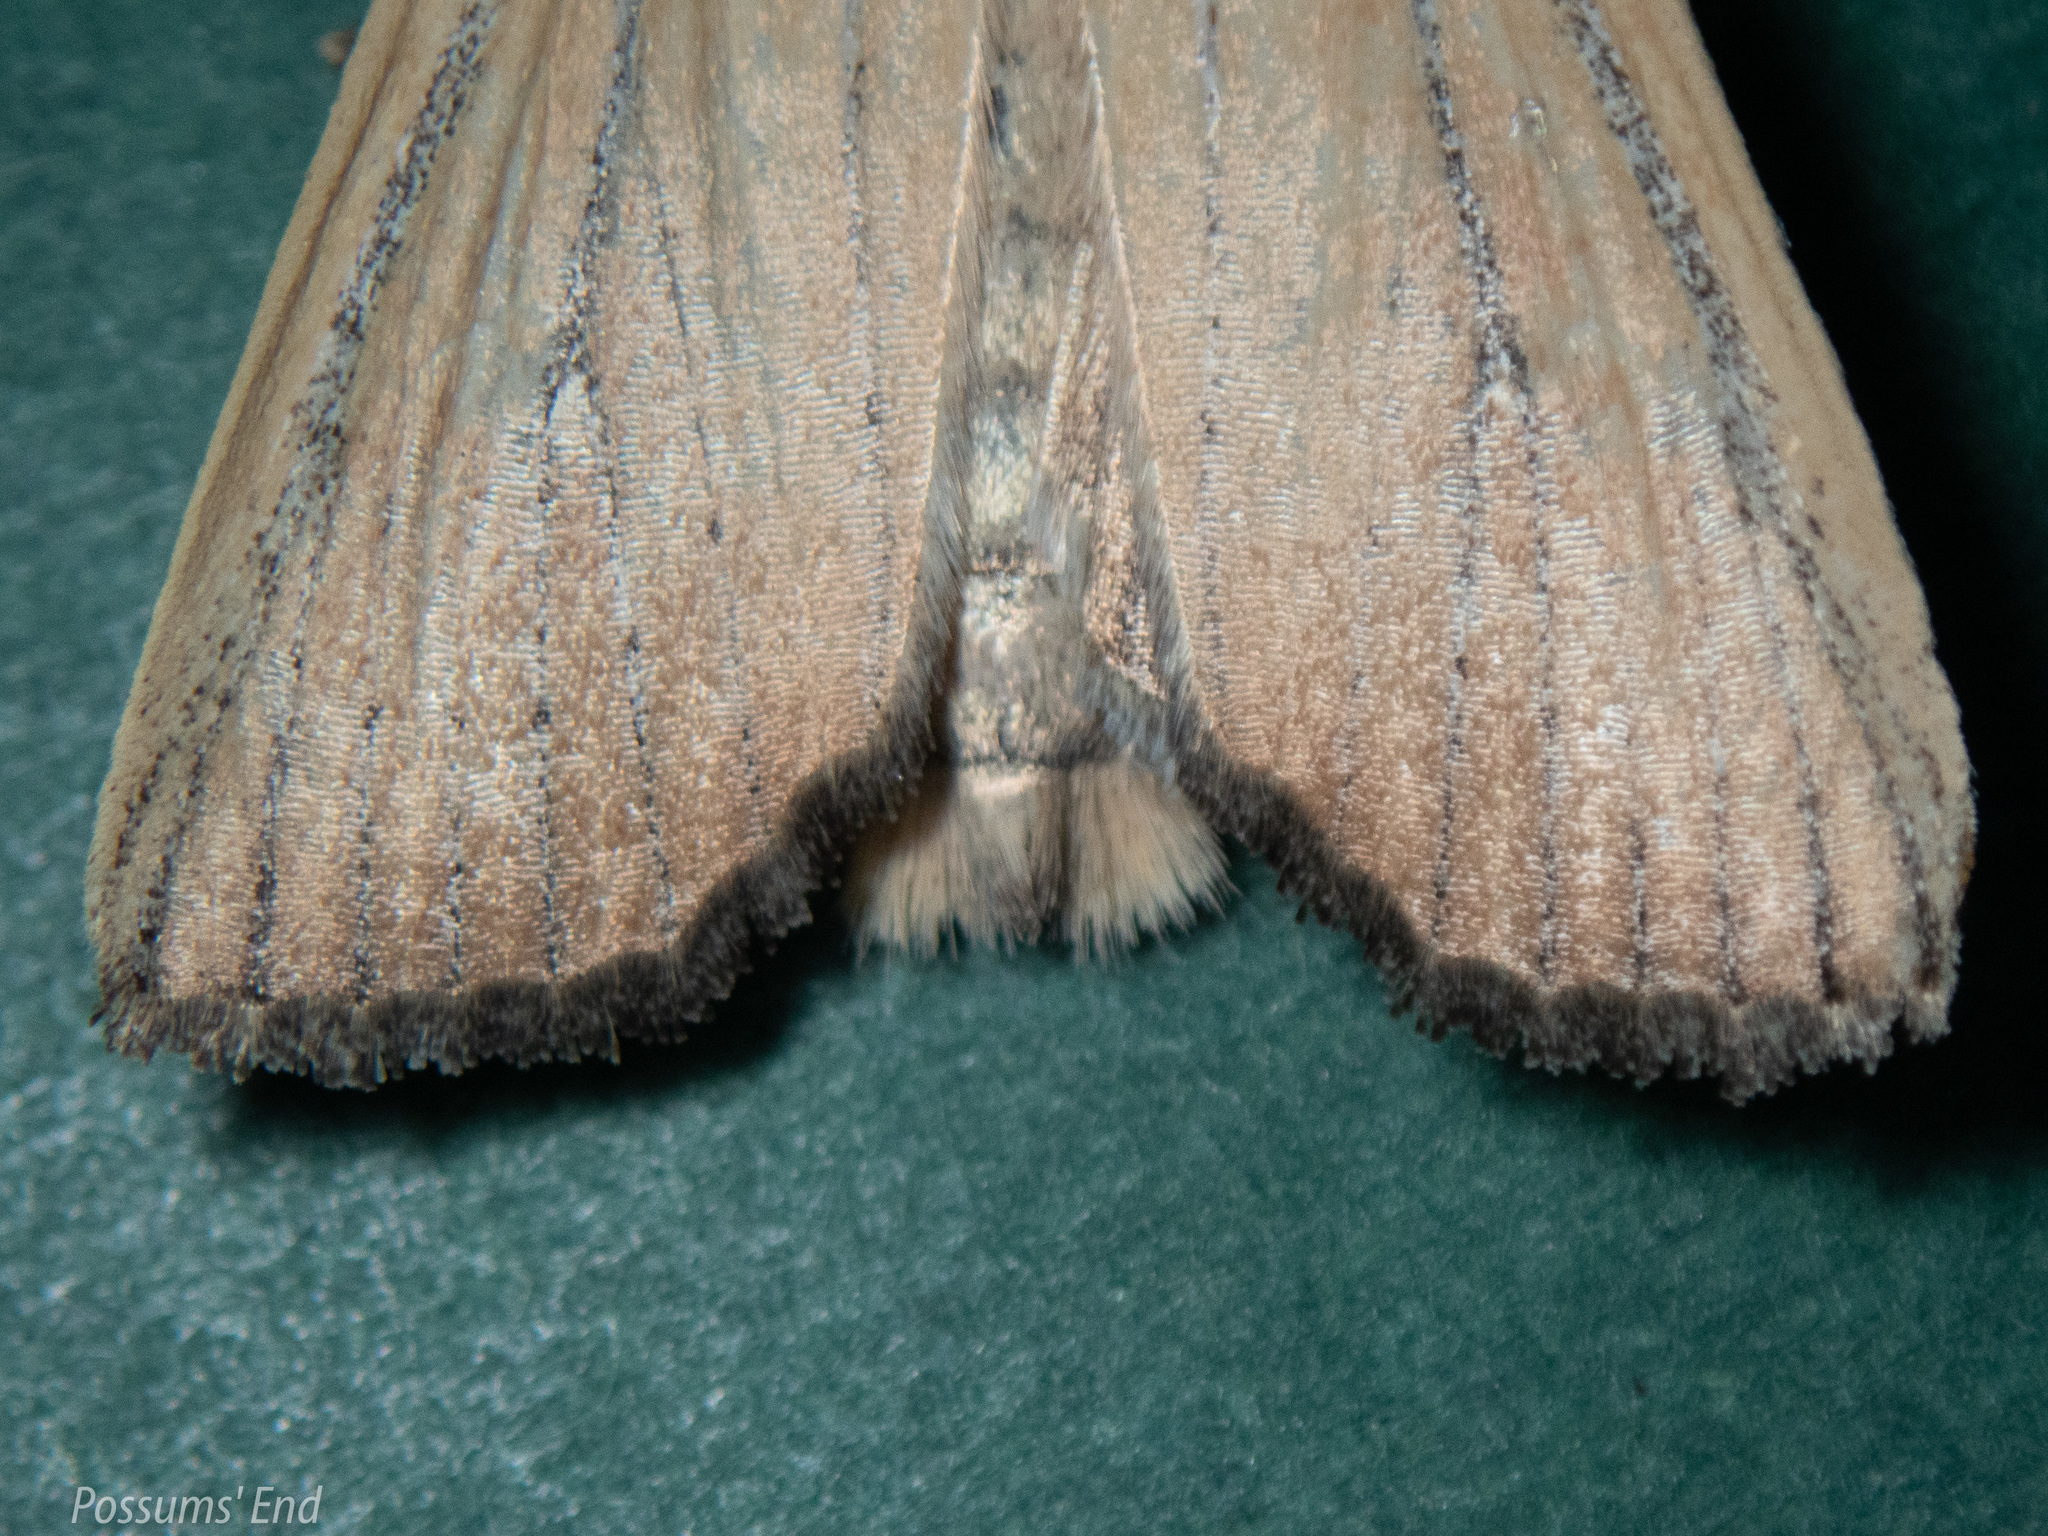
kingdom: Animalia
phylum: Arthropoda
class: Insecta
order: Lepidoptera
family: Noctuidae
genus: Ichneutica
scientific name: Ichneutica blenheimensis
